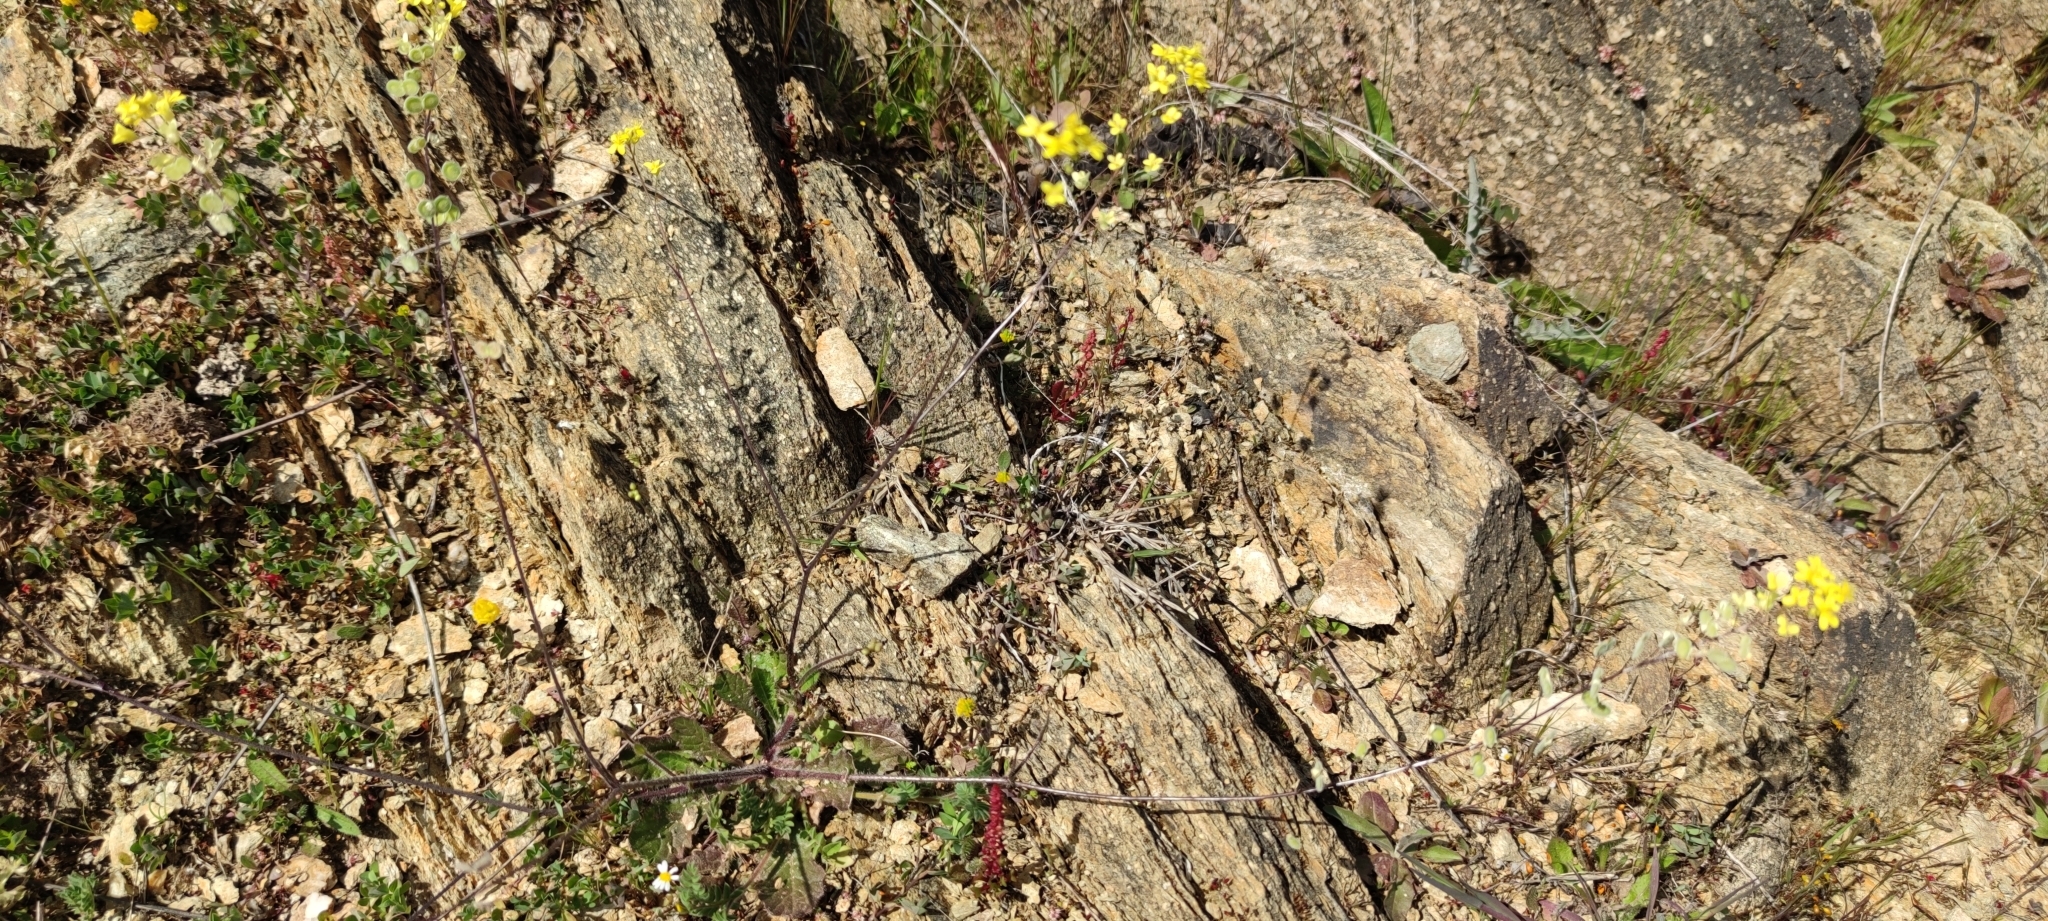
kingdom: Plantae
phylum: Tracheophyta
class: Magnoliopsida
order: Brassicales
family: Brassicaceae
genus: Biscutella
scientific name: Biscutella baetica
